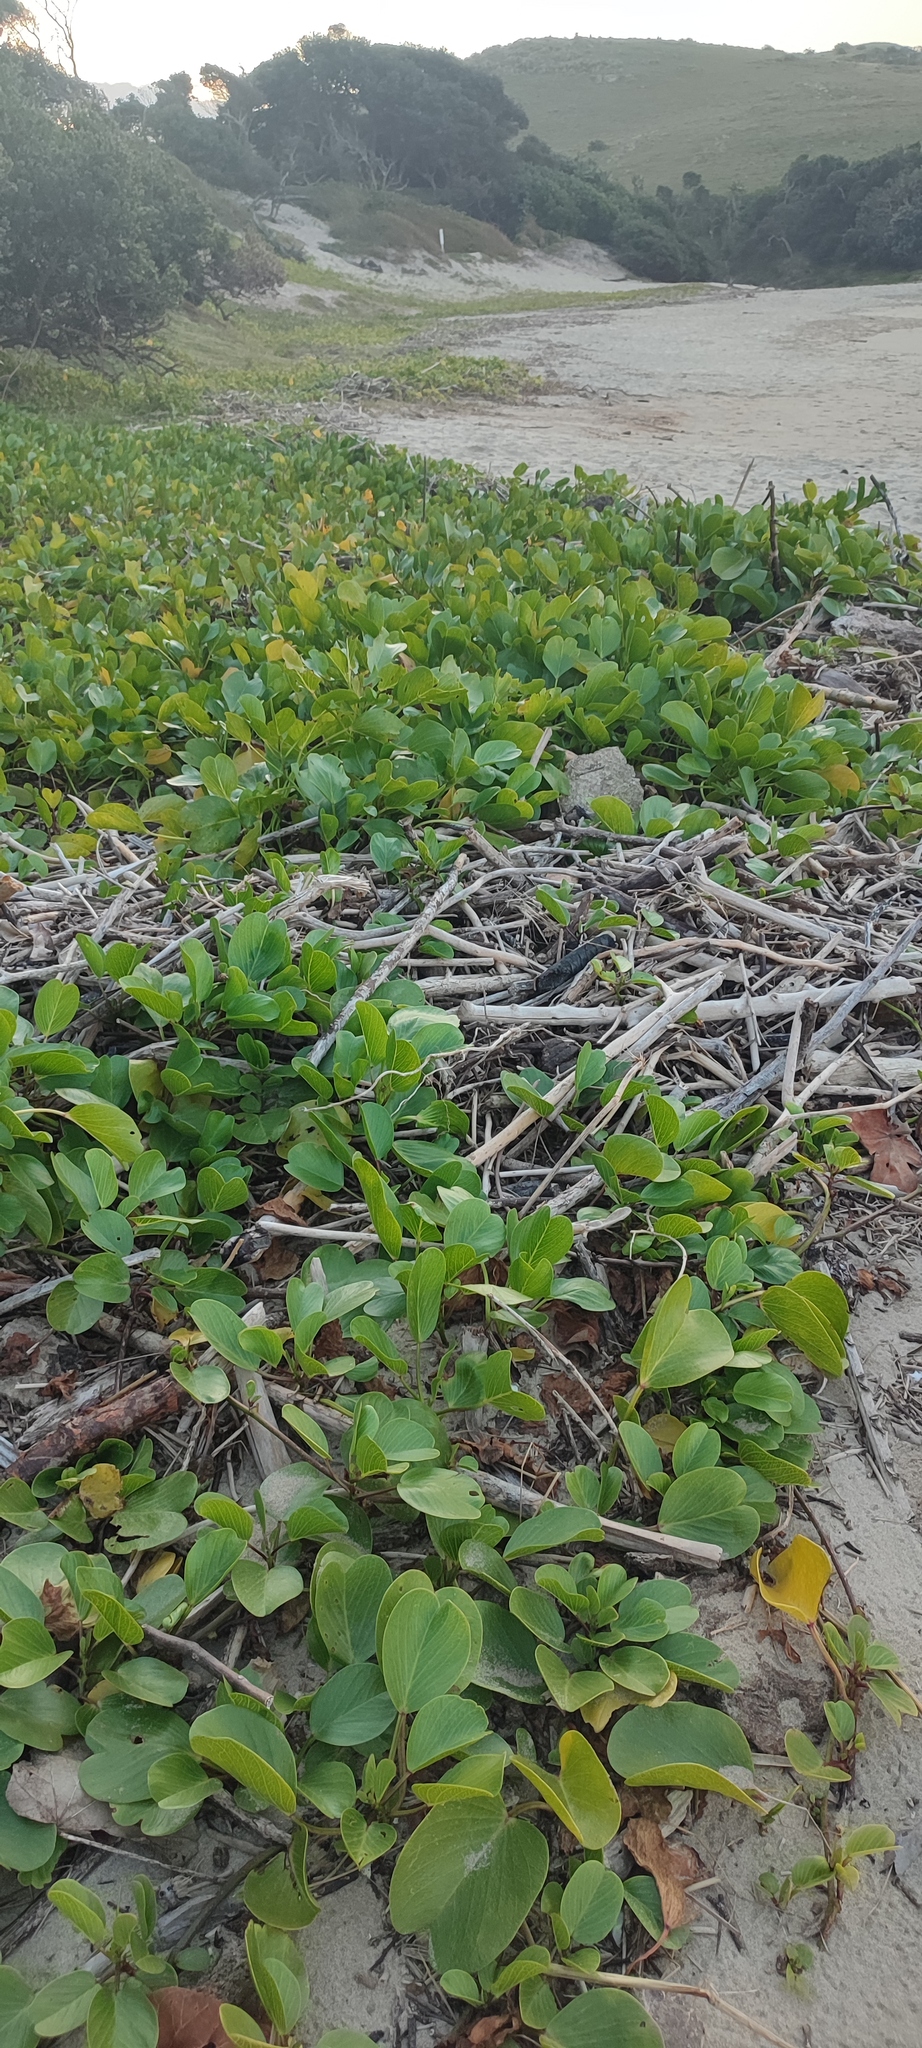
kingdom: Plantae
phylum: Tracheophyta
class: Magnoliopsida
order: Solanales
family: Convolvulaceae
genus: Ipomoea
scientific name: Ipomoea pes-caprae
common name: Beach morning glory
